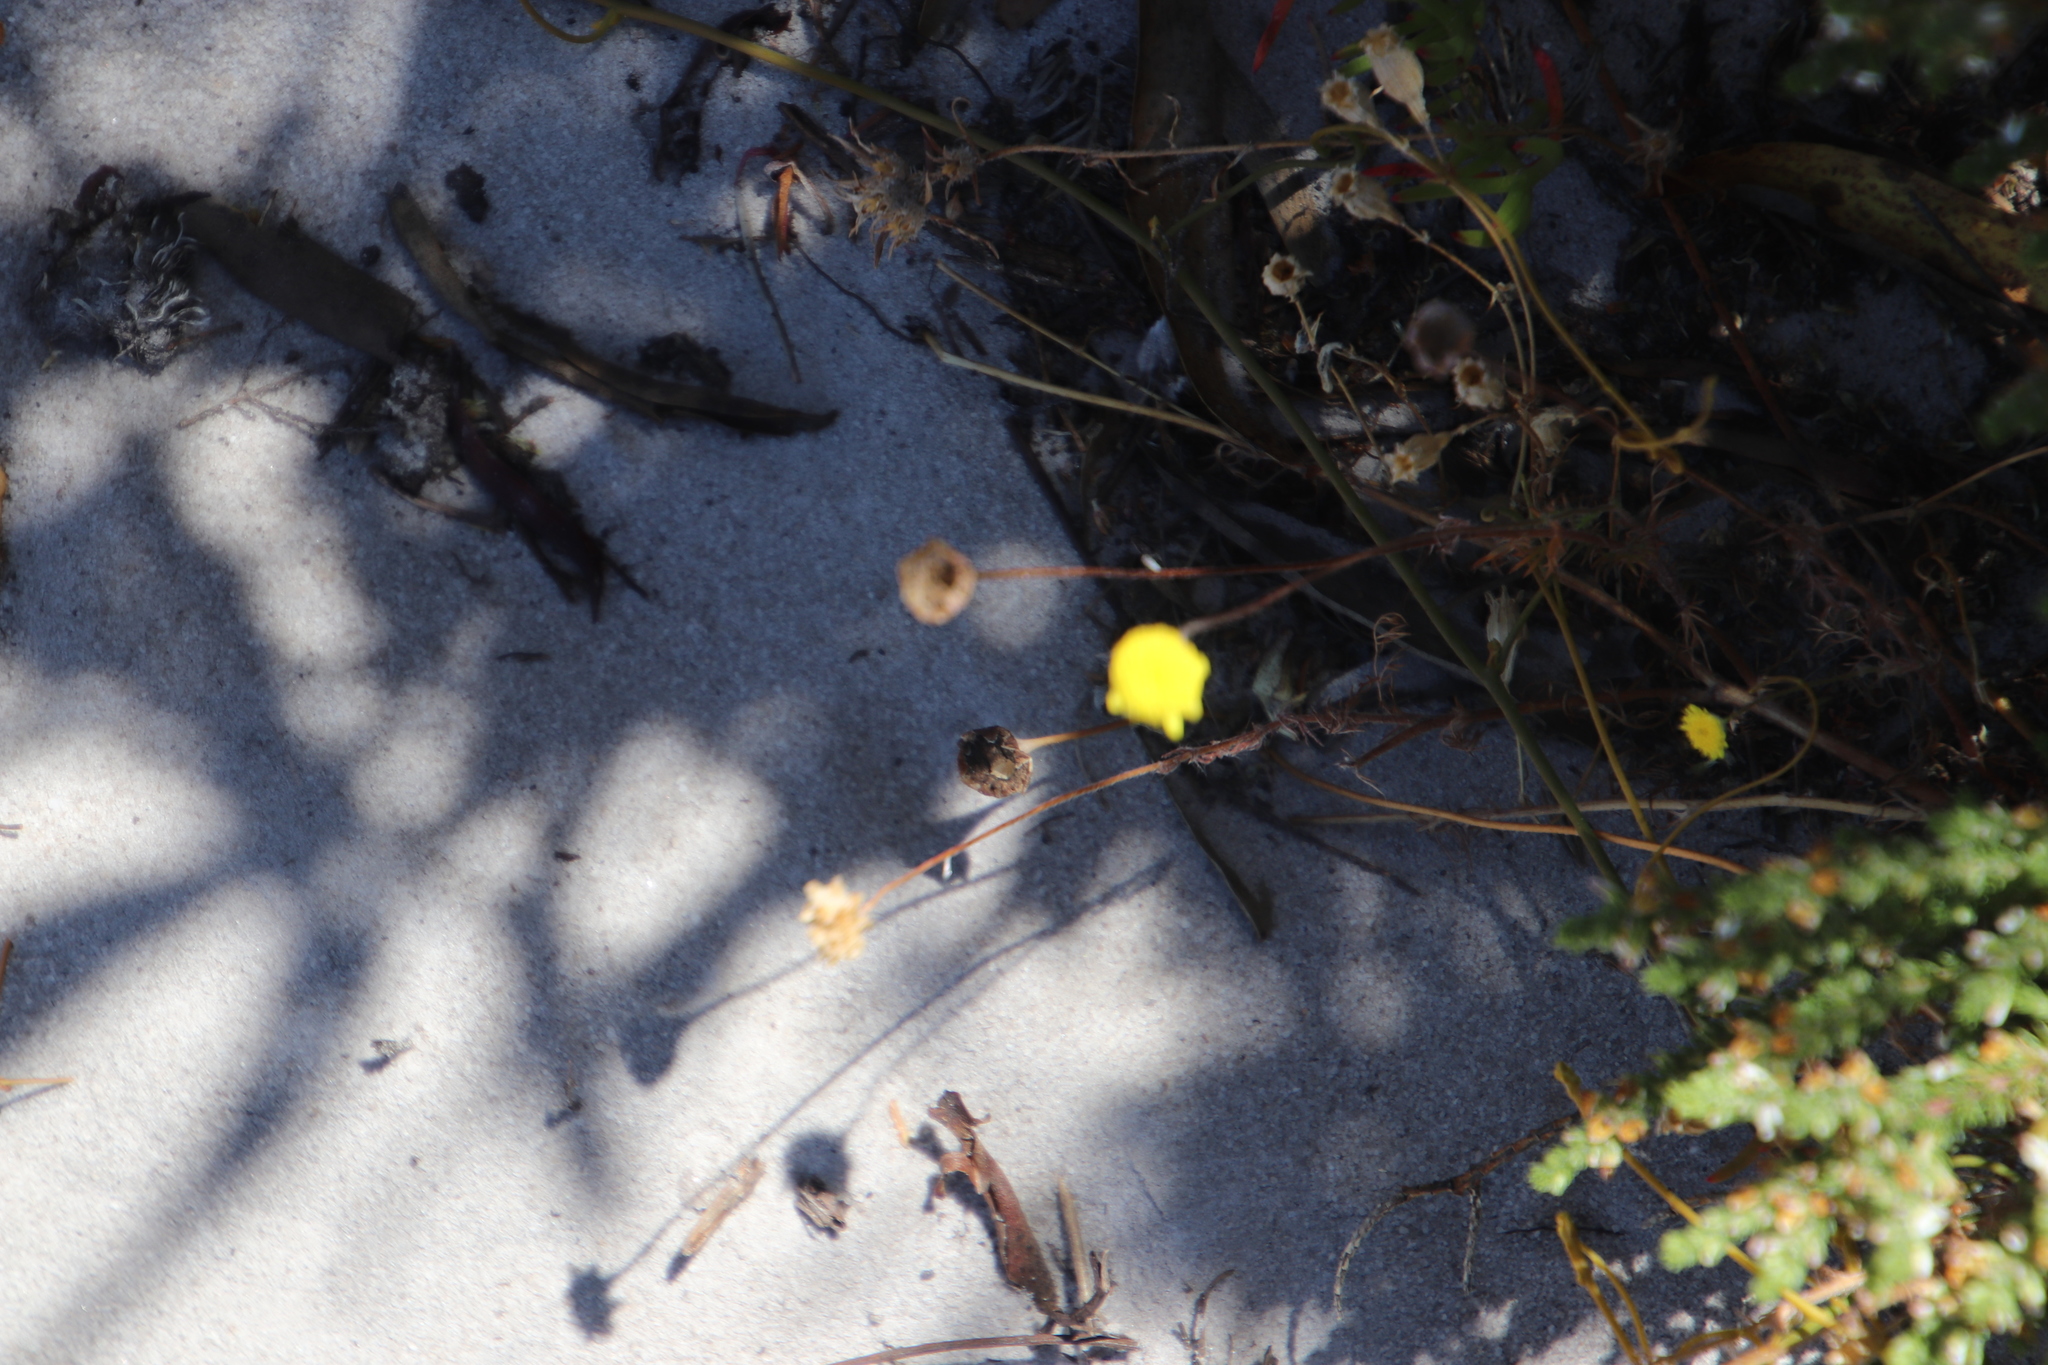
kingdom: Plantae
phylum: Tracheophyta
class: Magnoliopsida
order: Asterales
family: Asteraceae
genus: Cotula
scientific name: Cotula pruinosa
